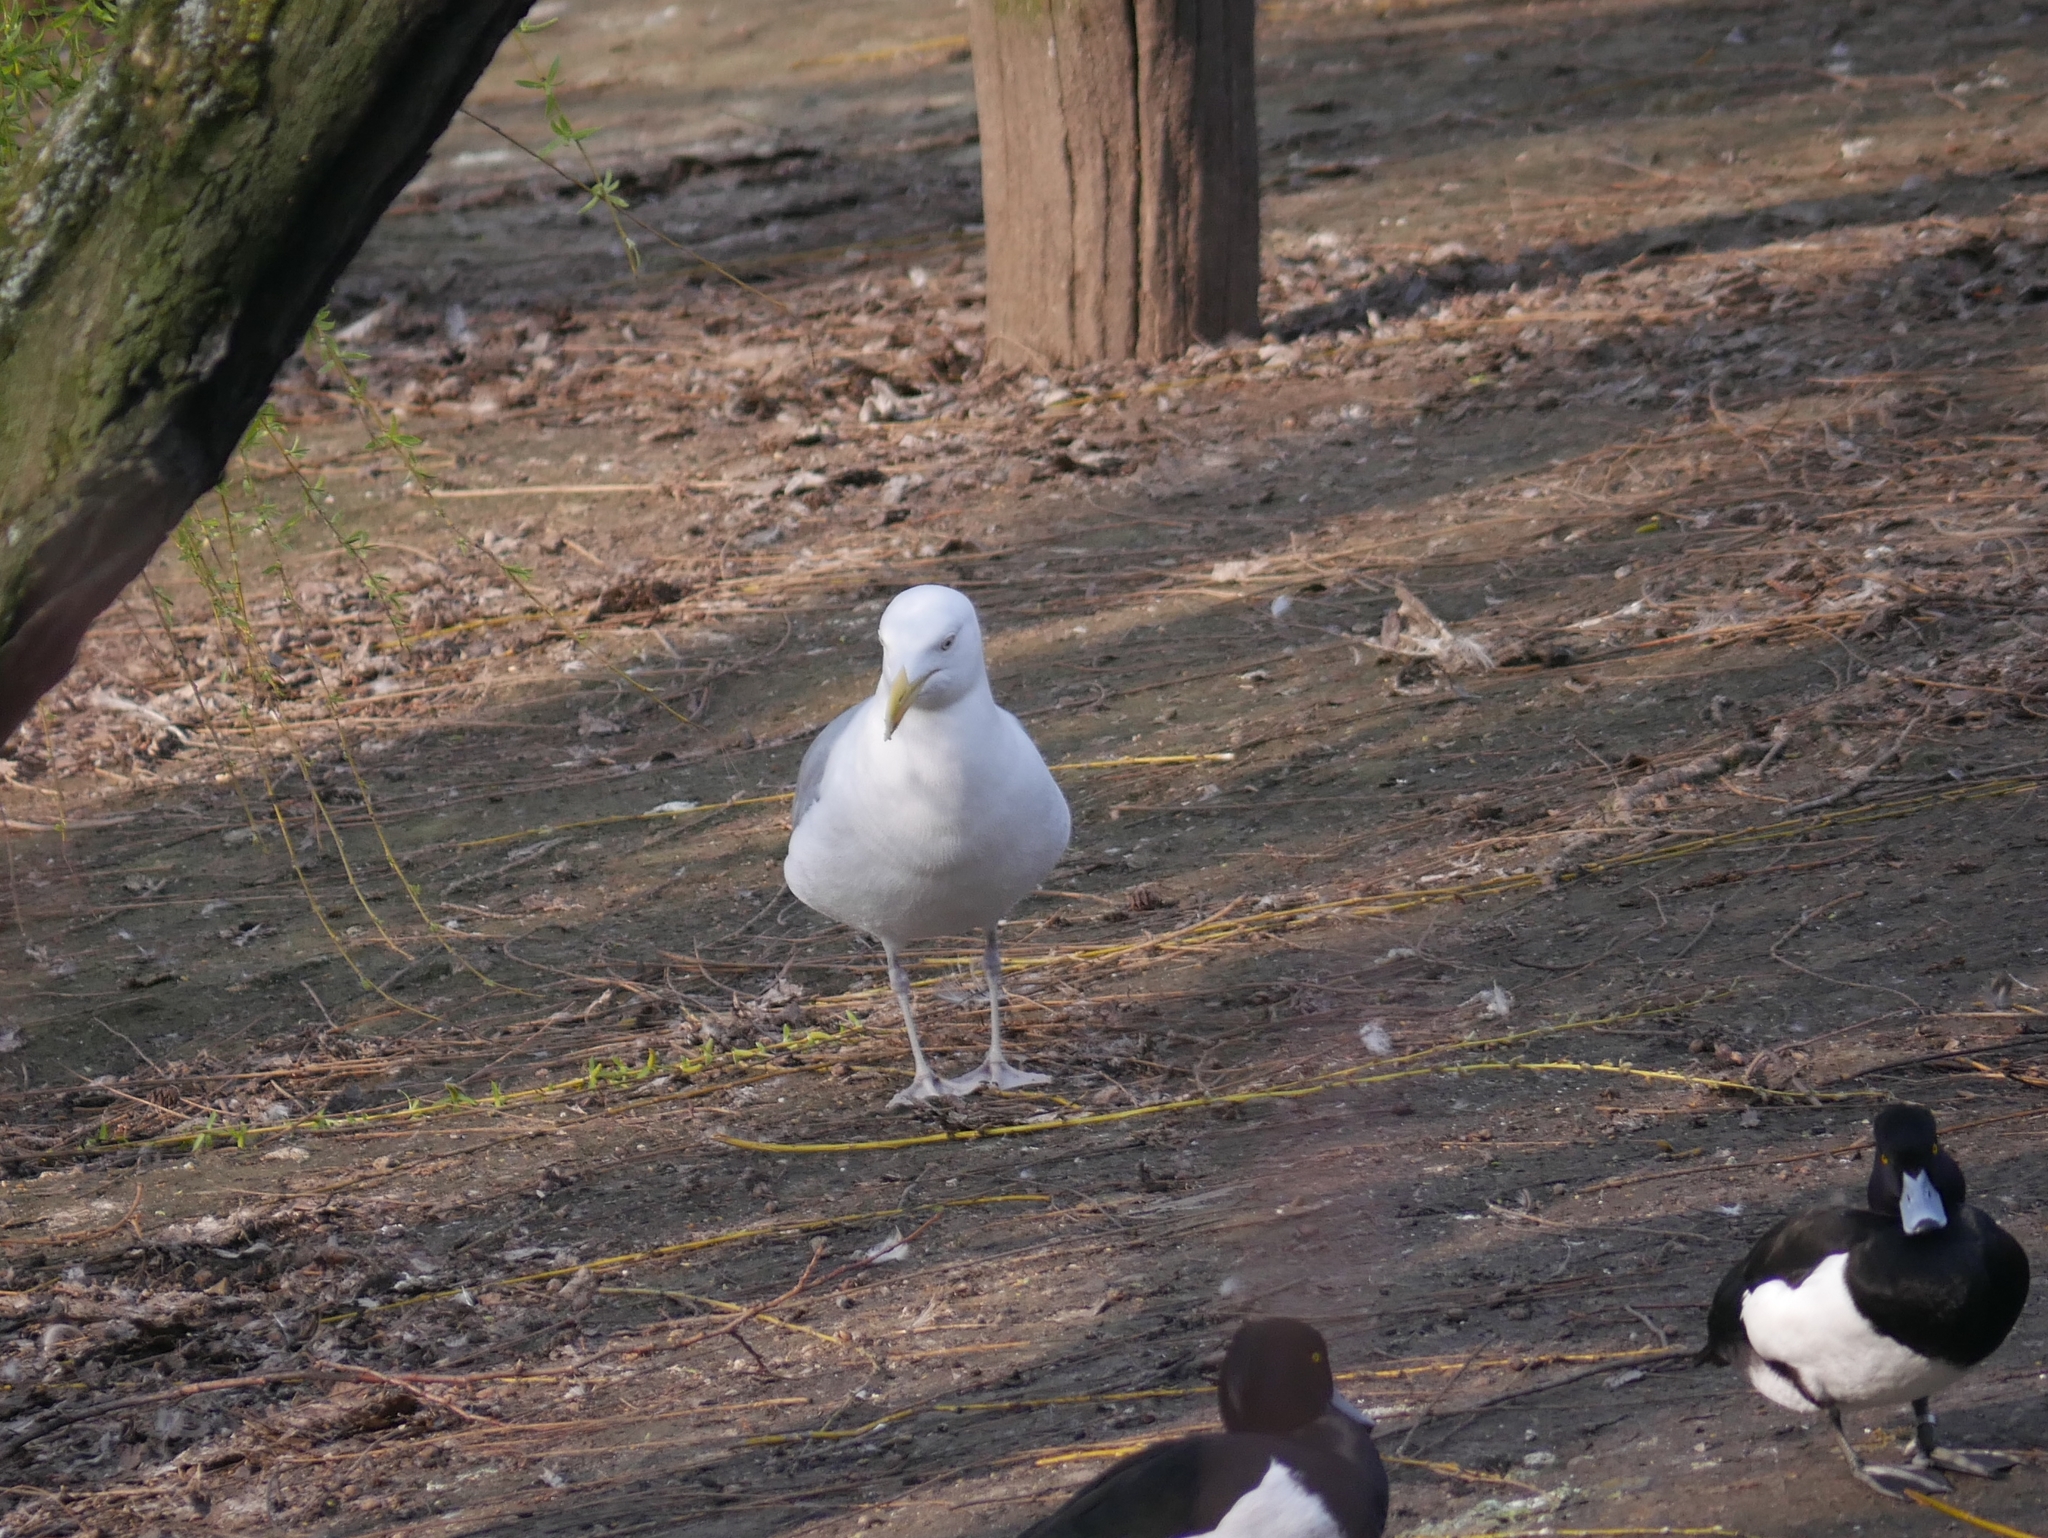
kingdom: Animalia
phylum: Chordata
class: Aves
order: Charadriiformes
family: Laridae
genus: Larus
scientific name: Larus argentatus
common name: Herring gull
